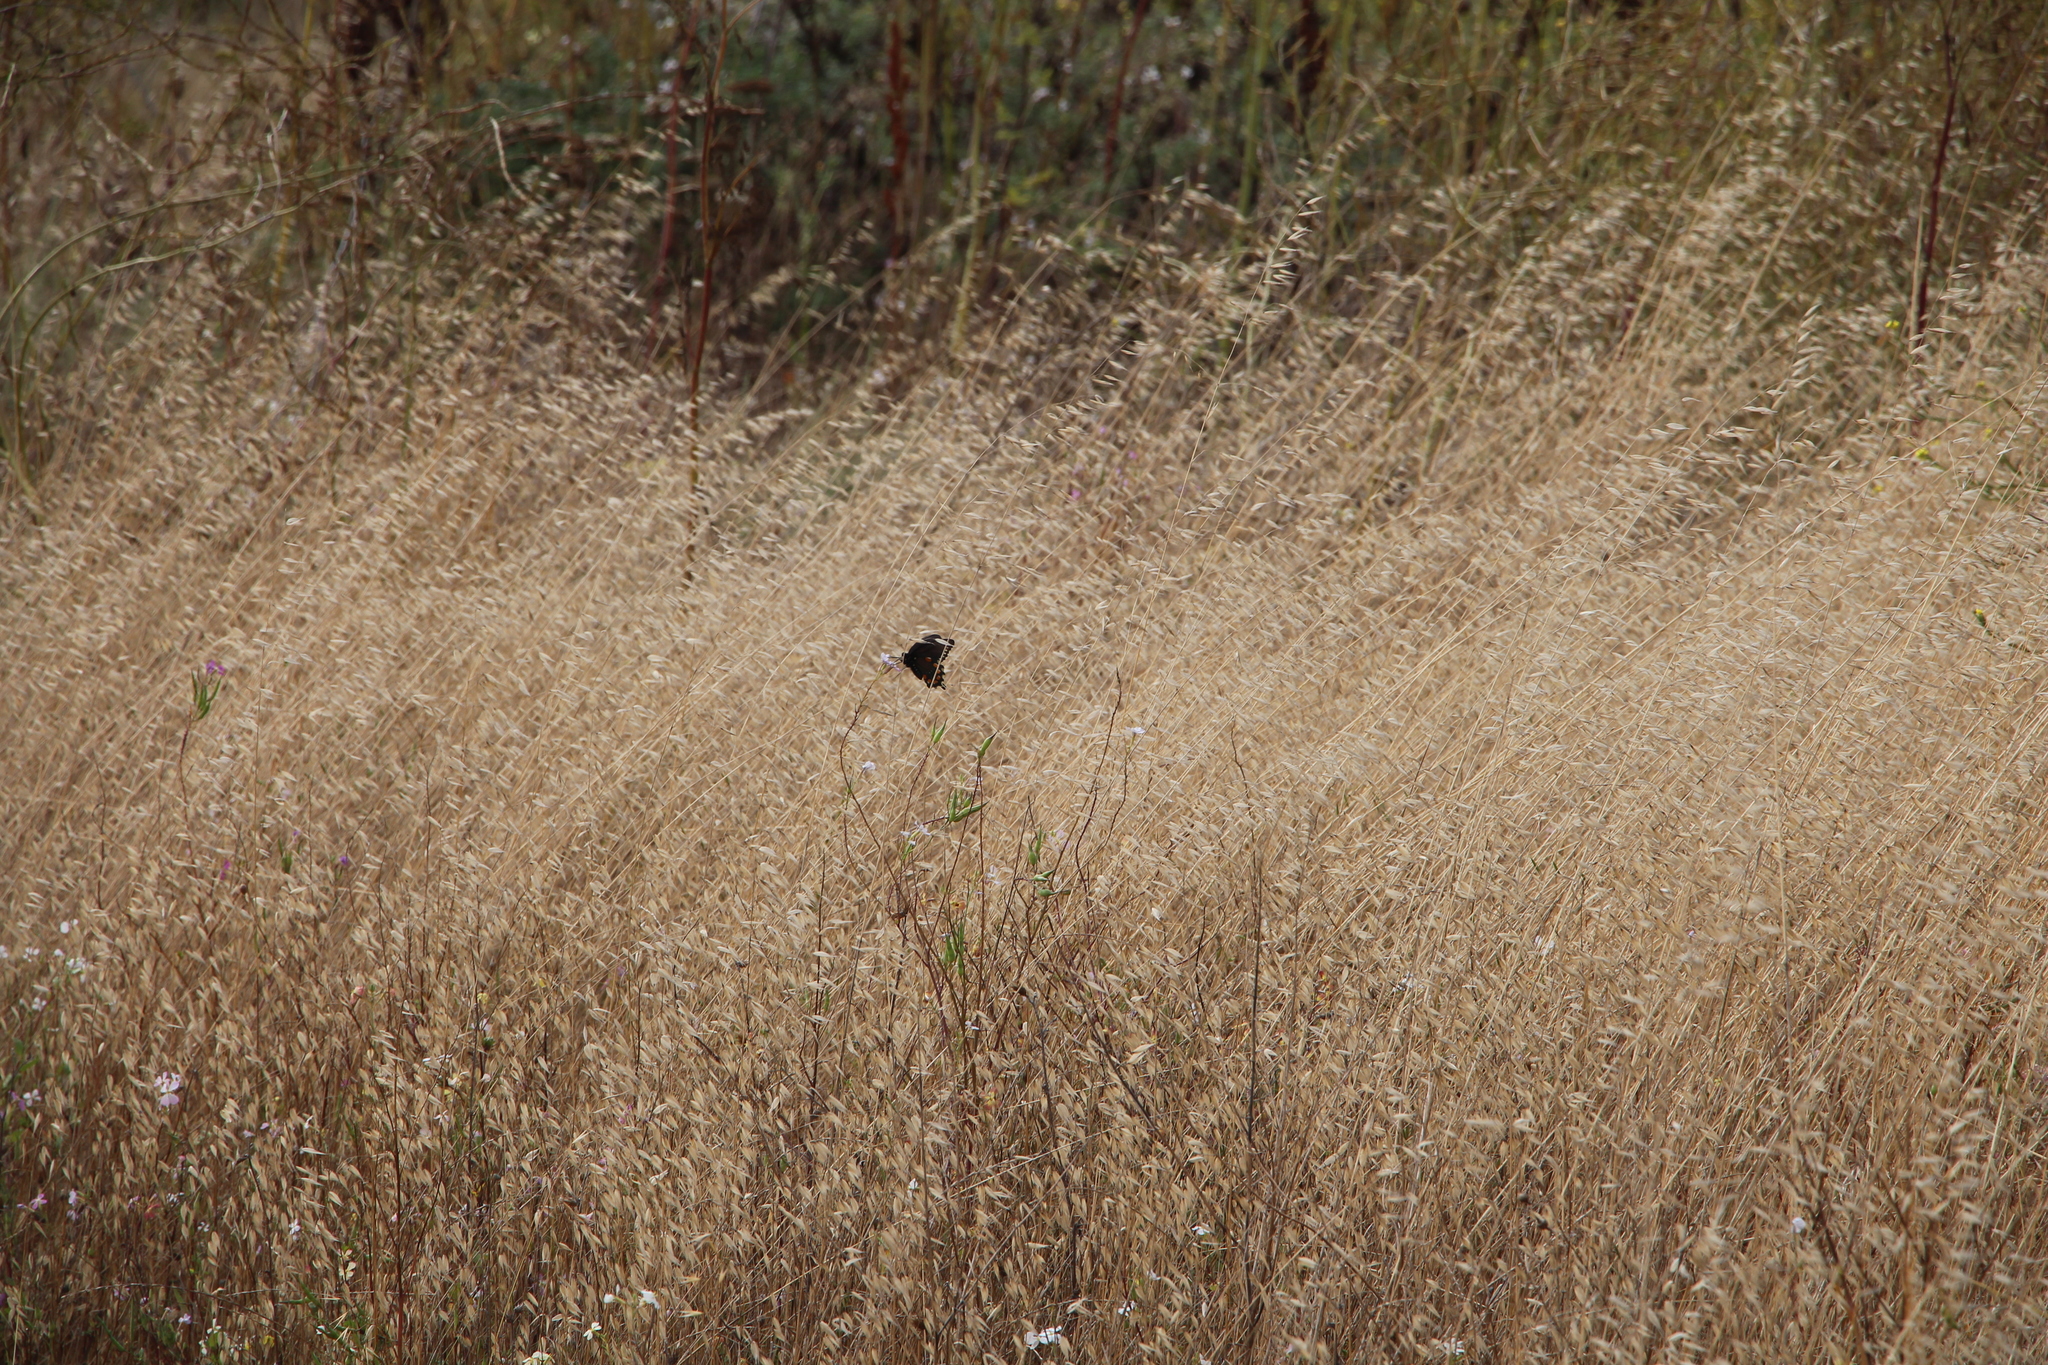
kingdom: Animalia
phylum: Arthropoda
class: Insecta
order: Lepidoptera
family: Papilionidae
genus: Battus
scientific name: Battus philenor
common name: Pipevine swallowtail
